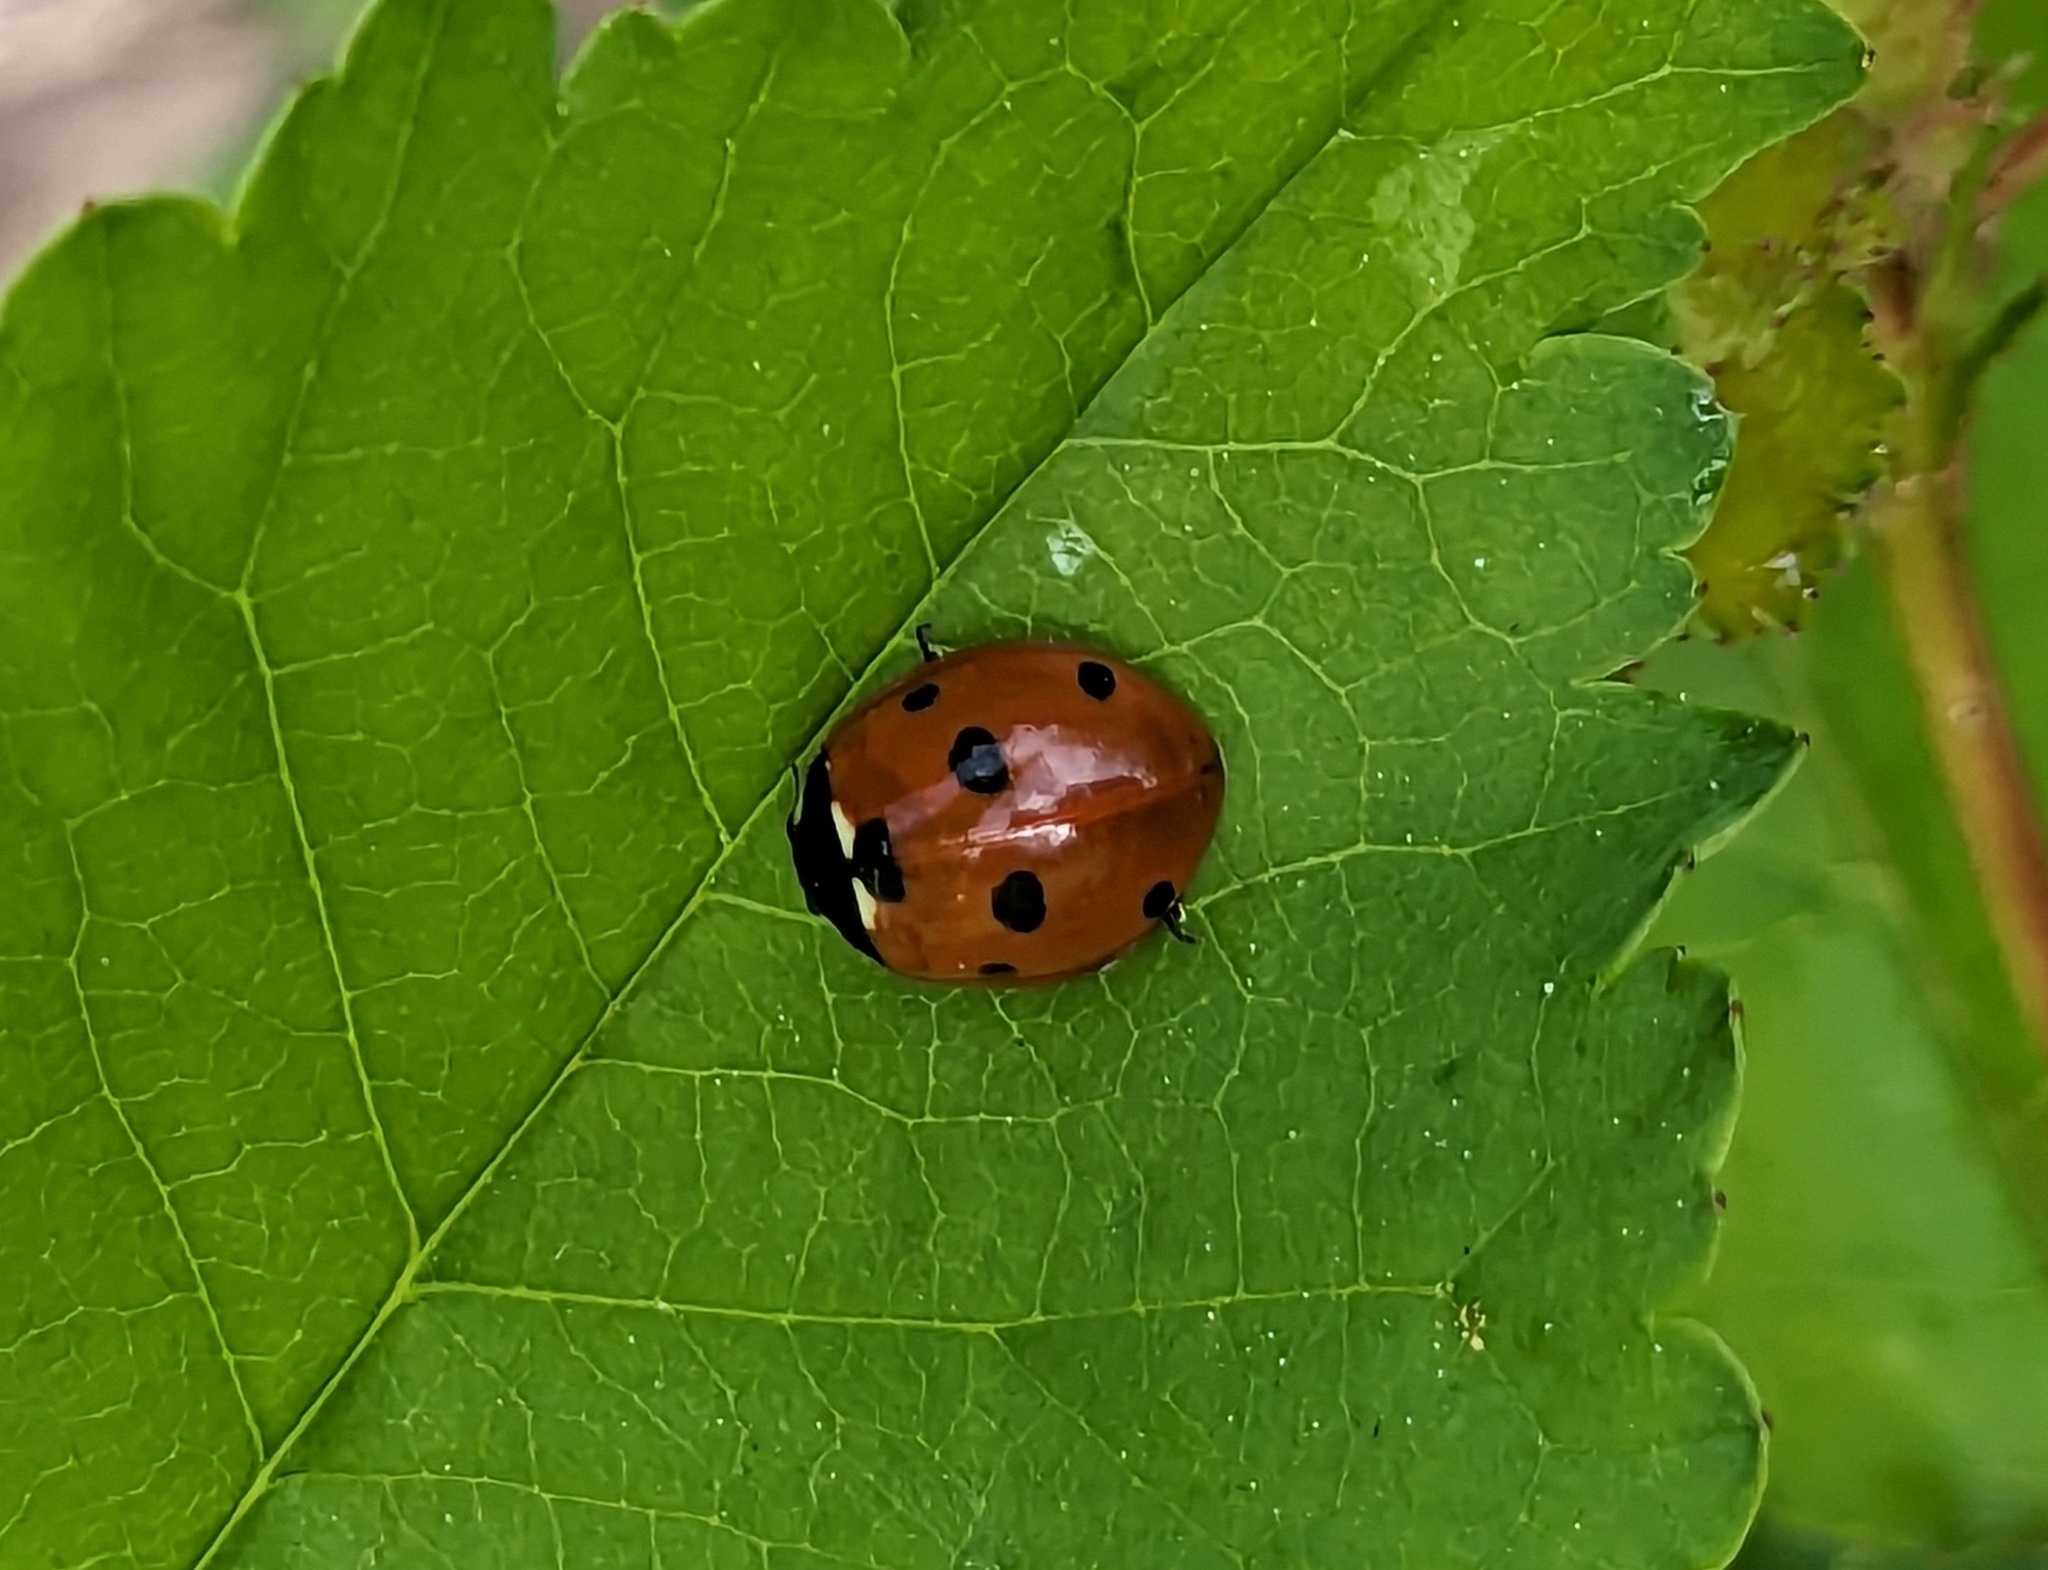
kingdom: Animalia
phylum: Arthropoda
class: Insecta
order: Coleoptera
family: Coccinellidae
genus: Coccinella
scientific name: Coccinella septempunctata
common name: Sevenspotted lady beetle
